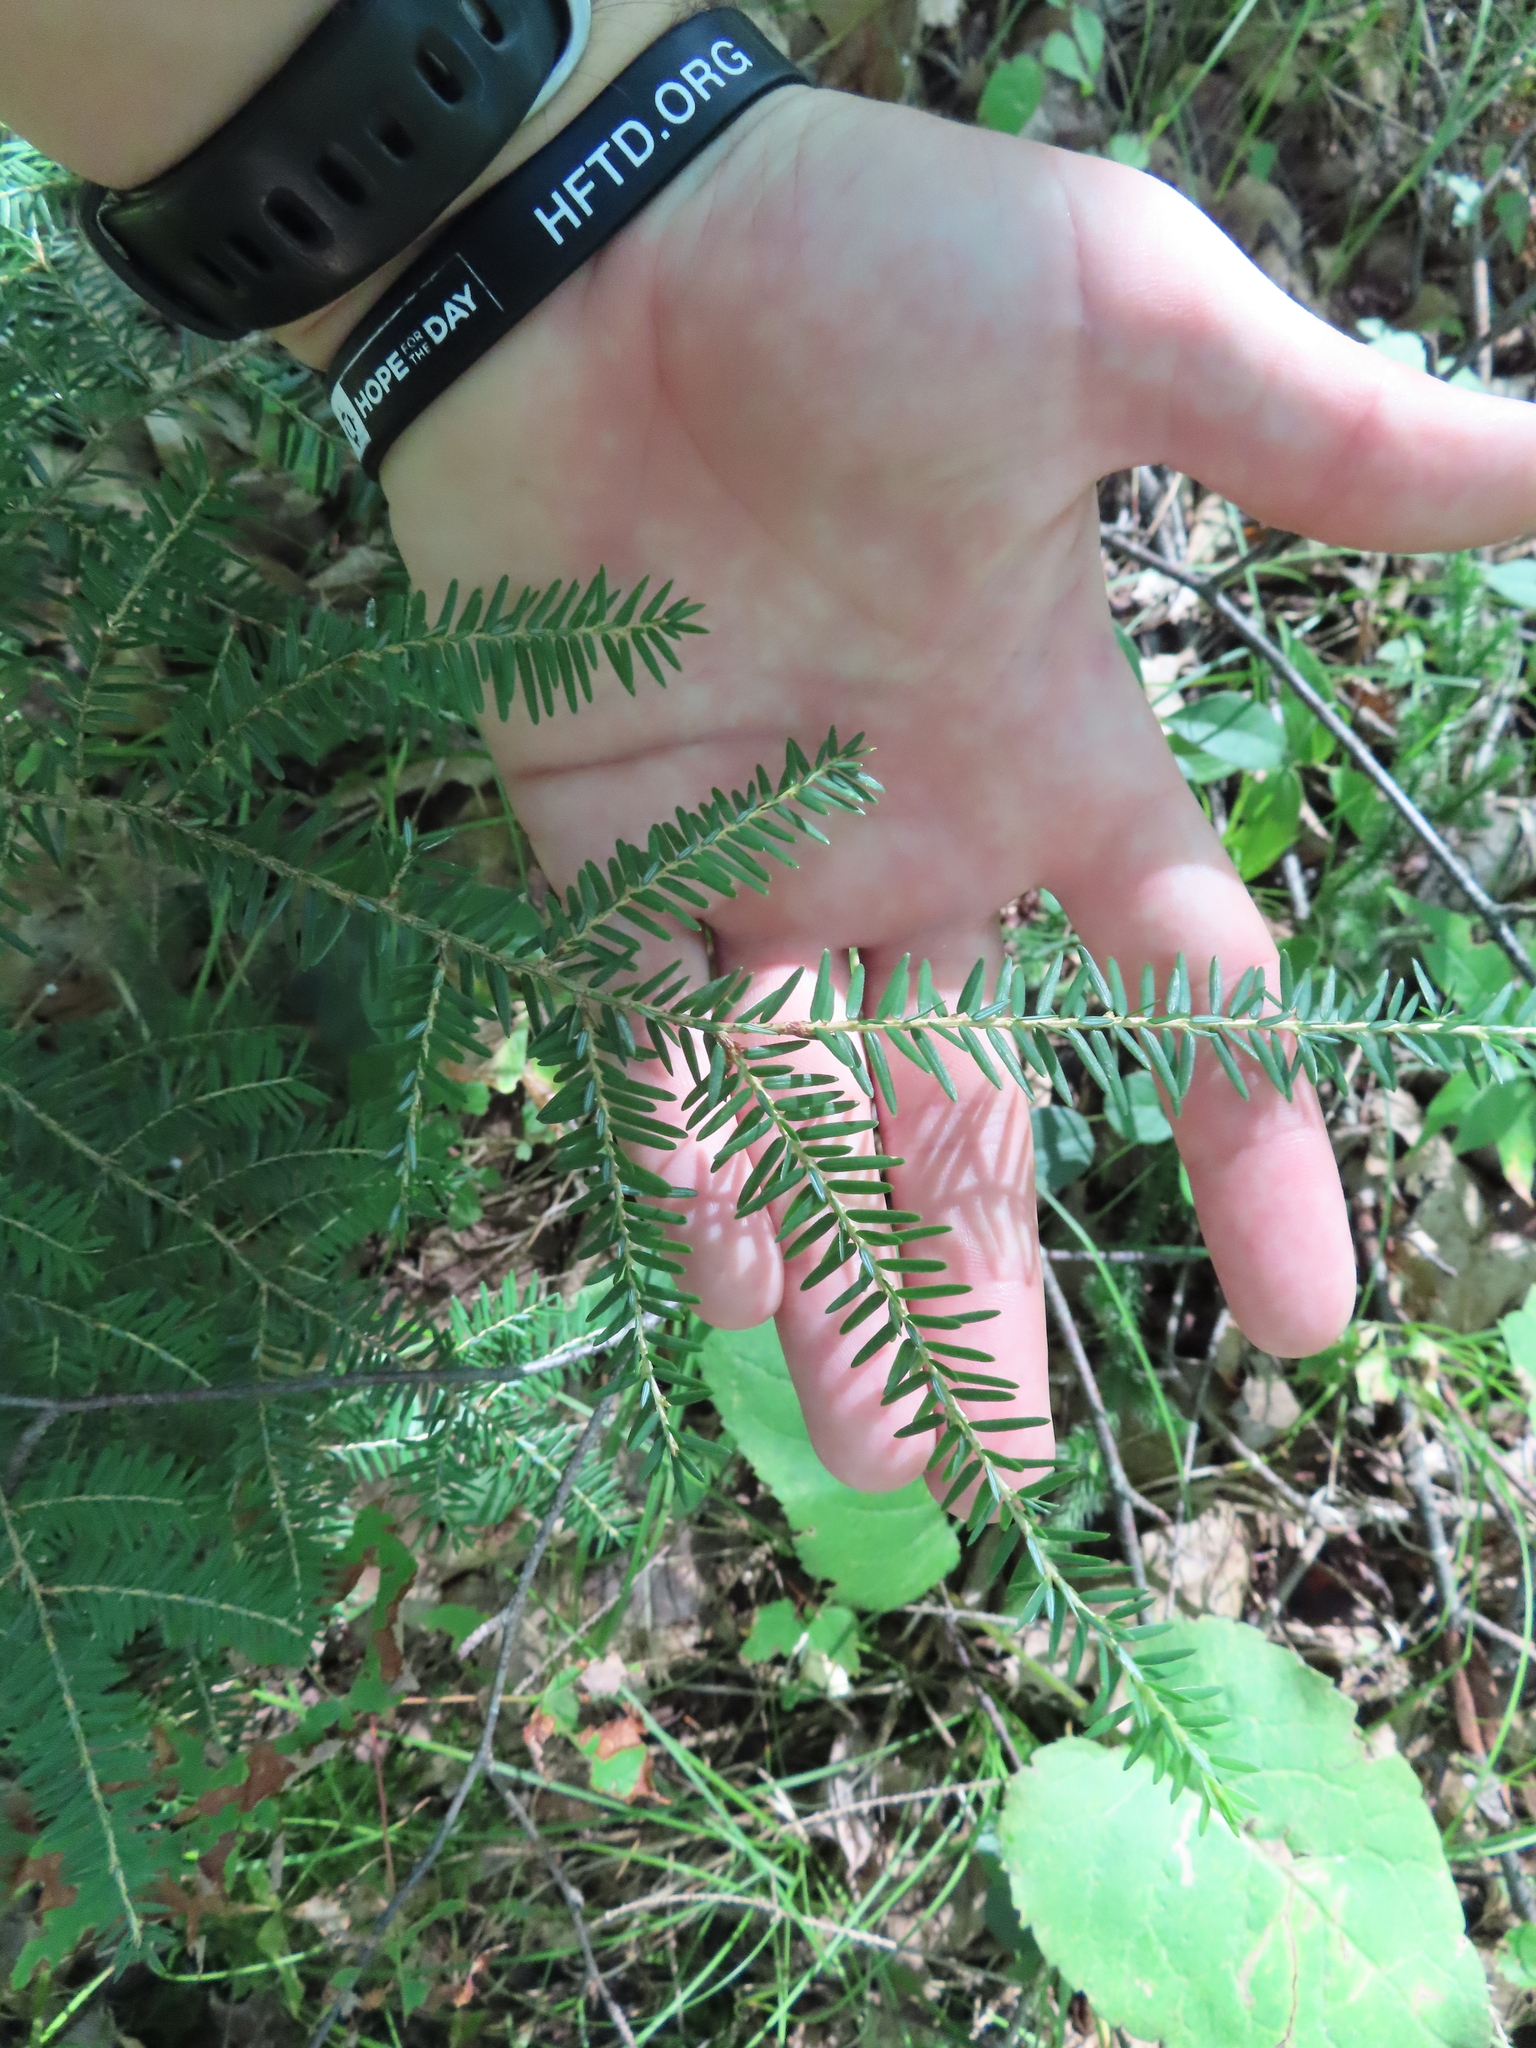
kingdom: Plantae
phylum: Tracheophyta
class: Pinopsida
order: Pinales
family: Pinaceae
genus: Tsuga
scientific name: Tsuga canadensis
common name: Eastern hemlock
